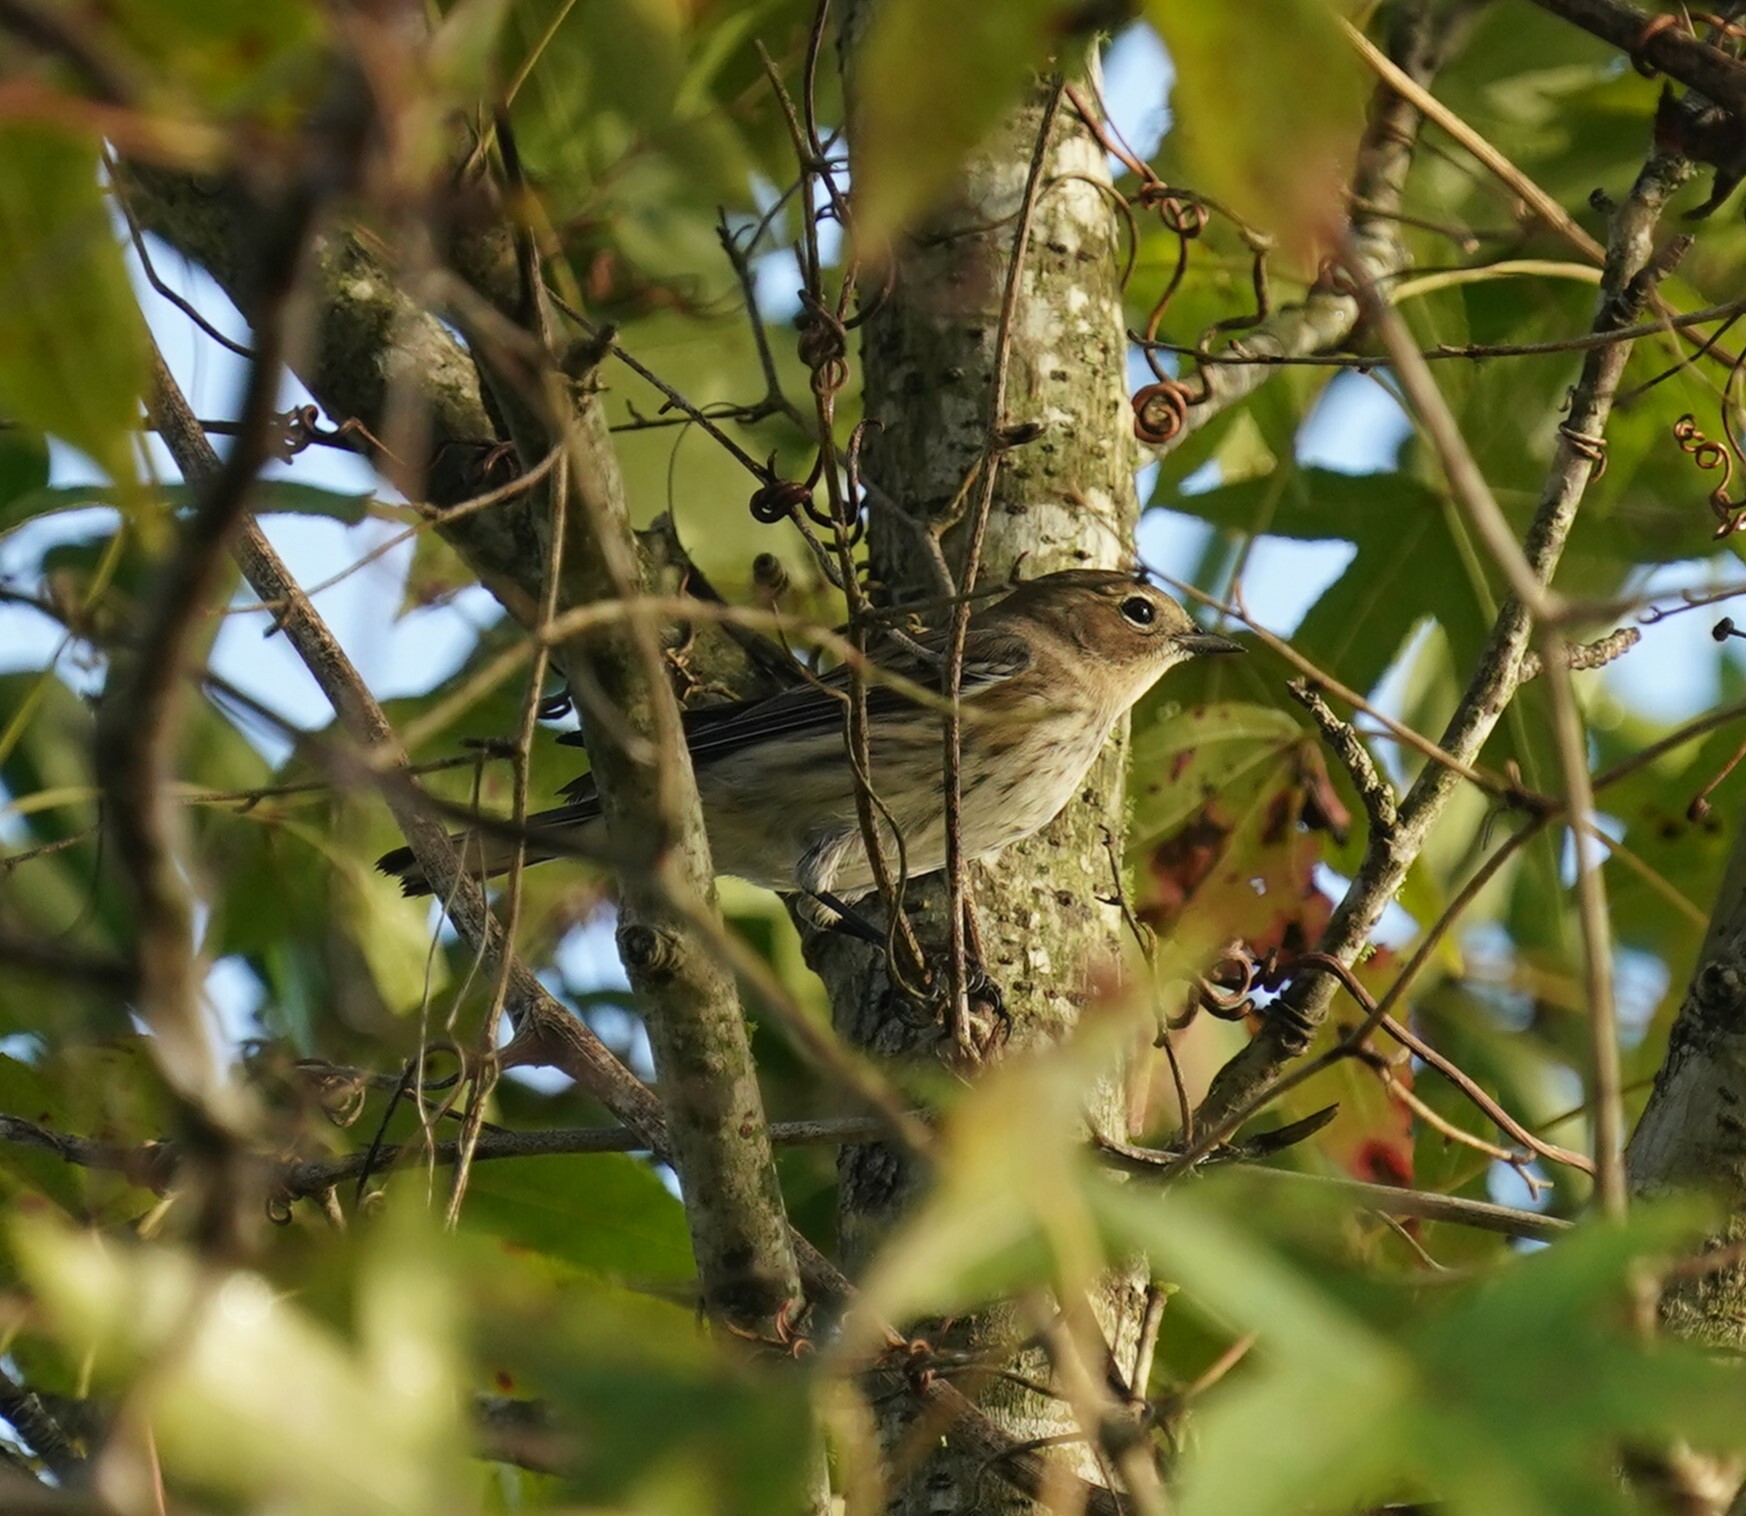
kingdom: Animalia
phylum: Chordata
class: Aves
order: Passeriformes
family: Parulidae
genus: Setophaga
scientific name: Setophaga coronata
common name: Myrtle warbler
